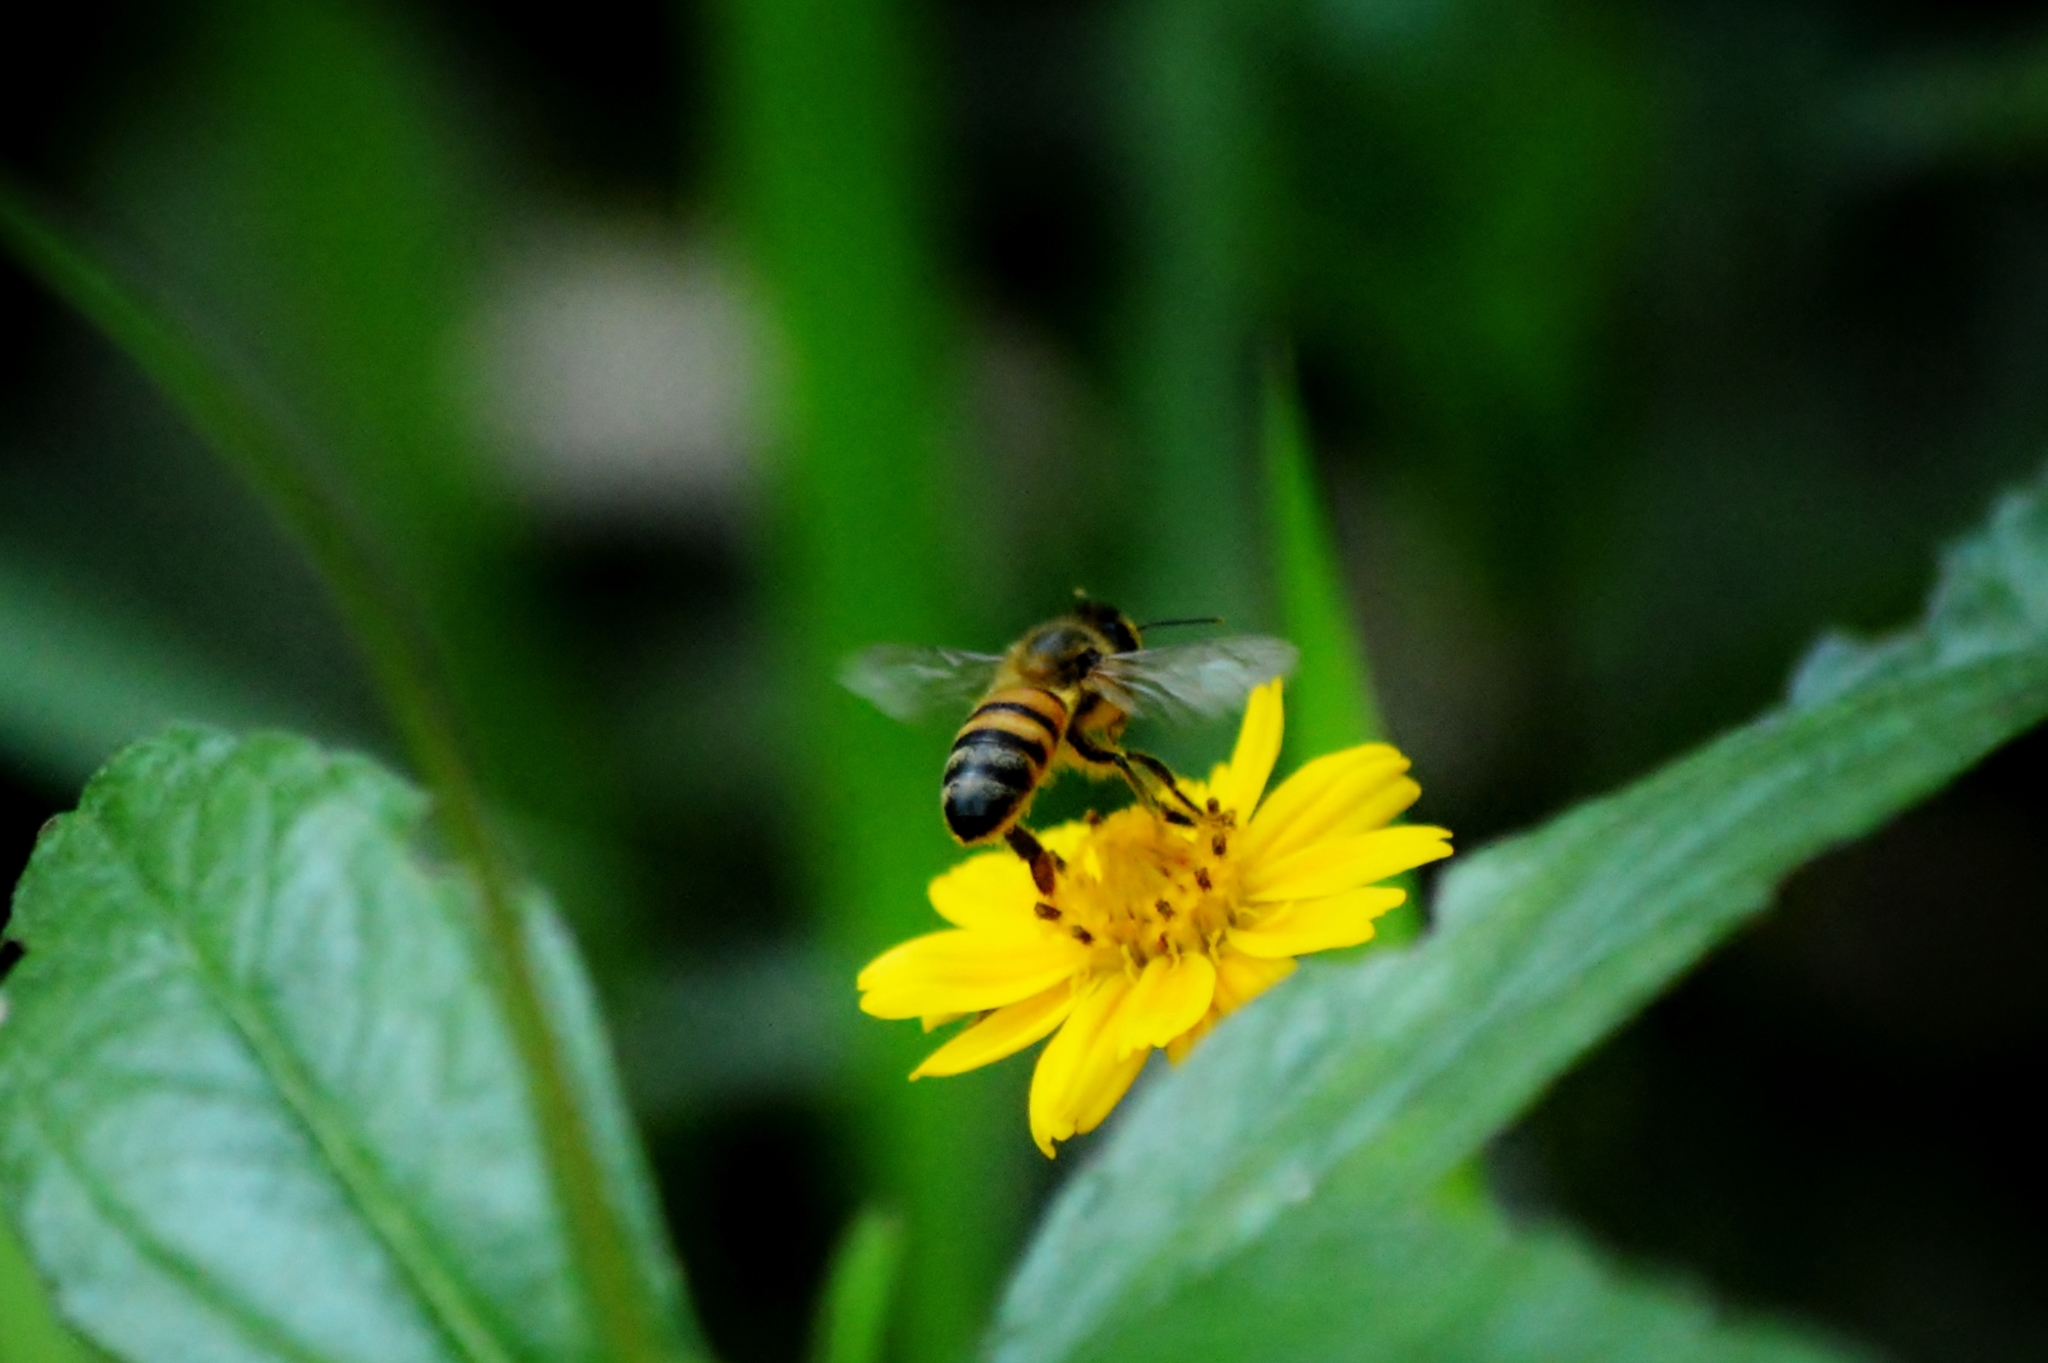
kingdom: Animalia
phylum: Arthropoda
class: Insecta
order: Hymenoptera
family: Apidae
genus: Apis
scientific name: Apis mellifera
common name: Honey bee
